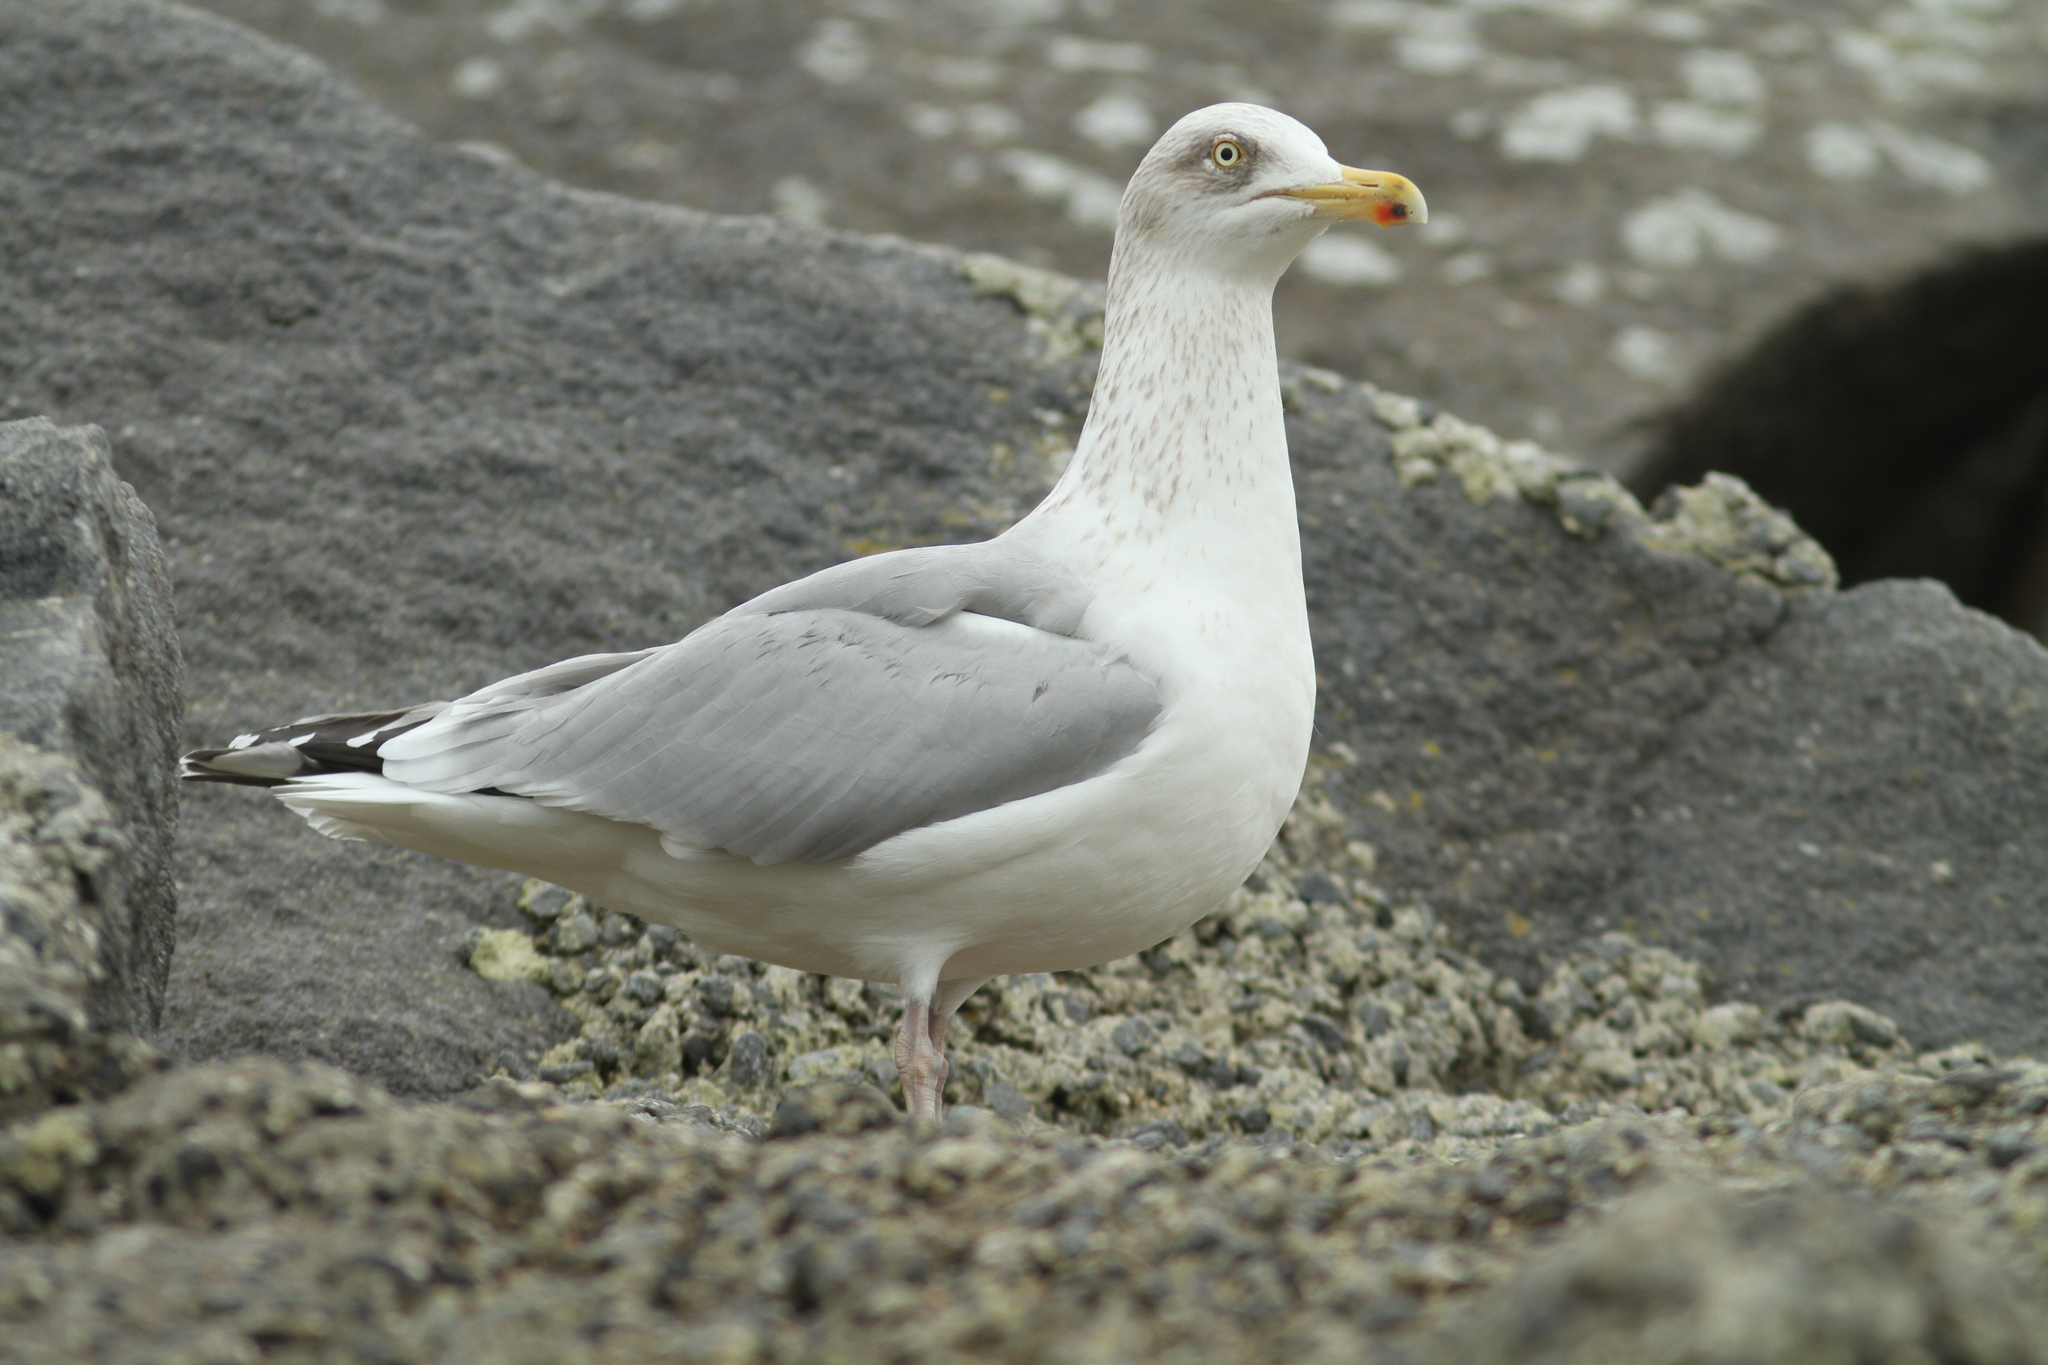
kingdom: Animalia
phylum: Chordata
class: Aves
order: Charadriiformes
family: Laridae
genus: Larus
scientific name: Larus argentatus
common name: Herring gull
